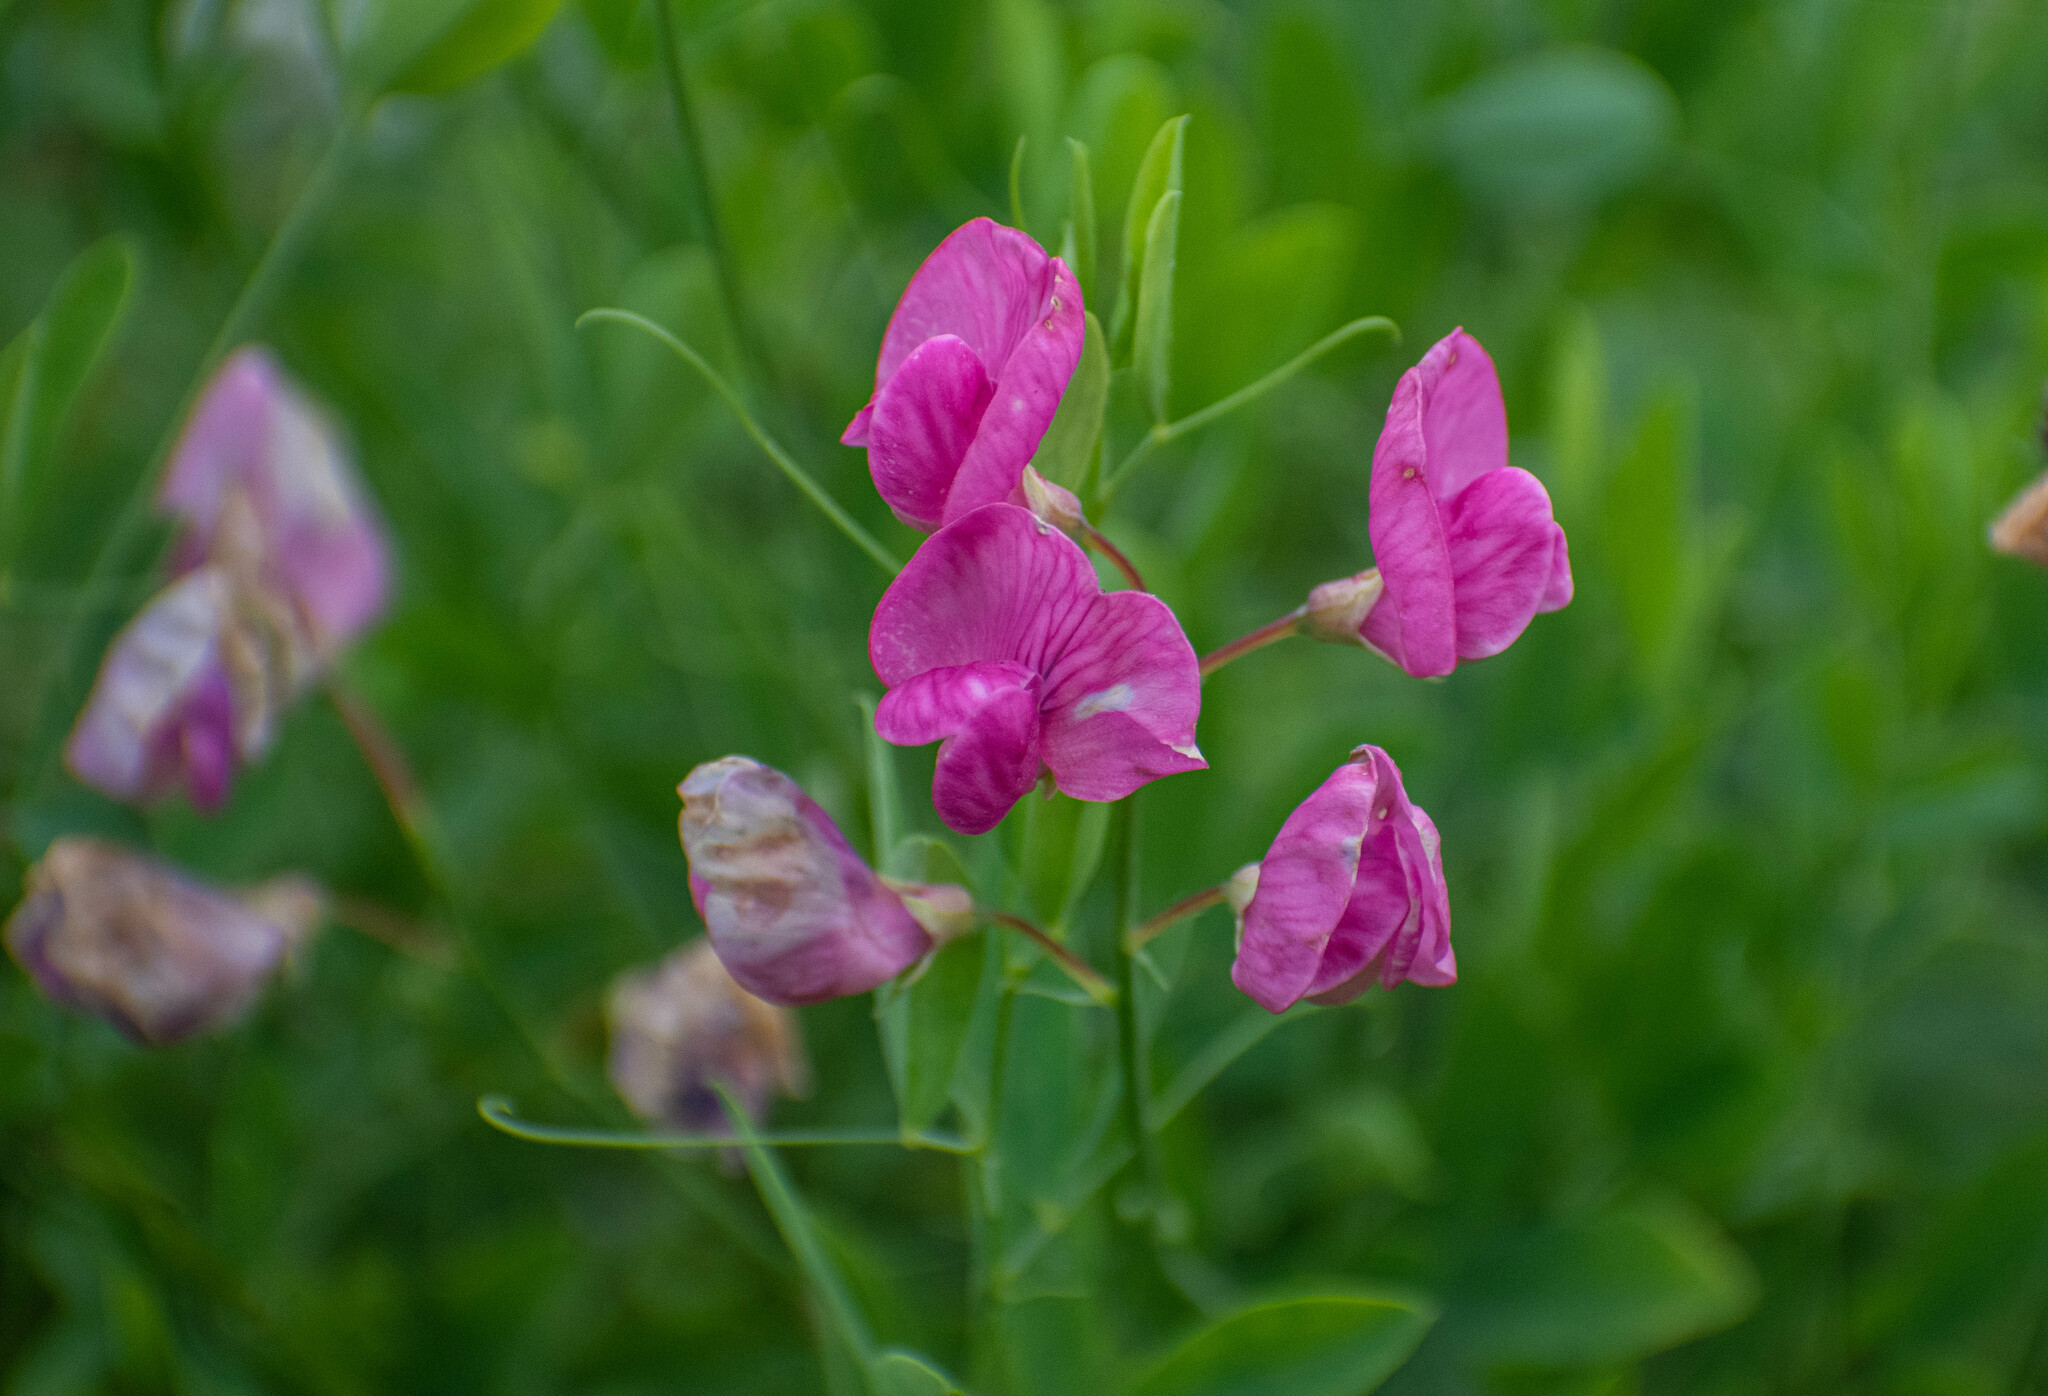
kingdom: Plantae
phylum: Tracheophyta
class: Magnoliopsida
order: Fabales
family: Fabaceae
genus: Lathyrus
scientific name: Lathyrus tuberosus
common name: Tuberous pea
